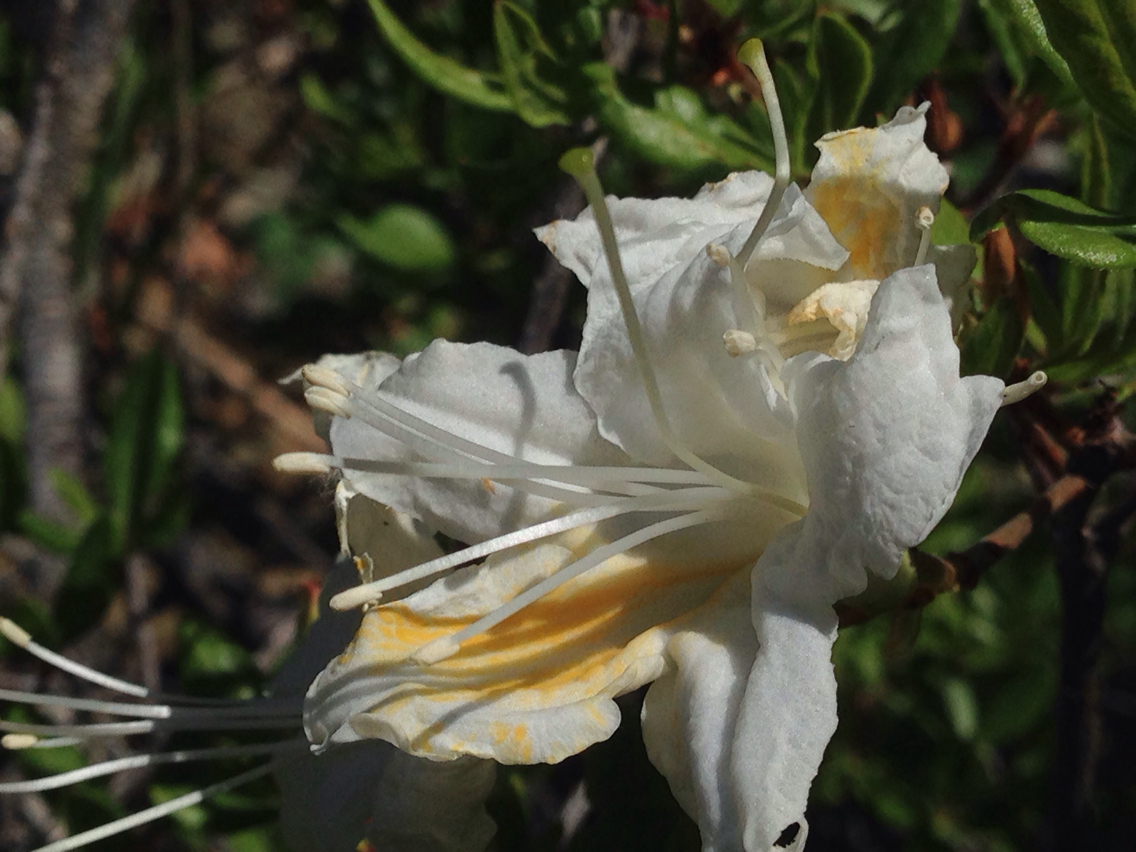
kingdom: Plantae
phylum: Tracheophyta
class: Magnoliopsida
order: Ericales
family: Ericaceae
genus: Rhododendron
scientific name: Rhododendron occidentale
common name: Western azalea
